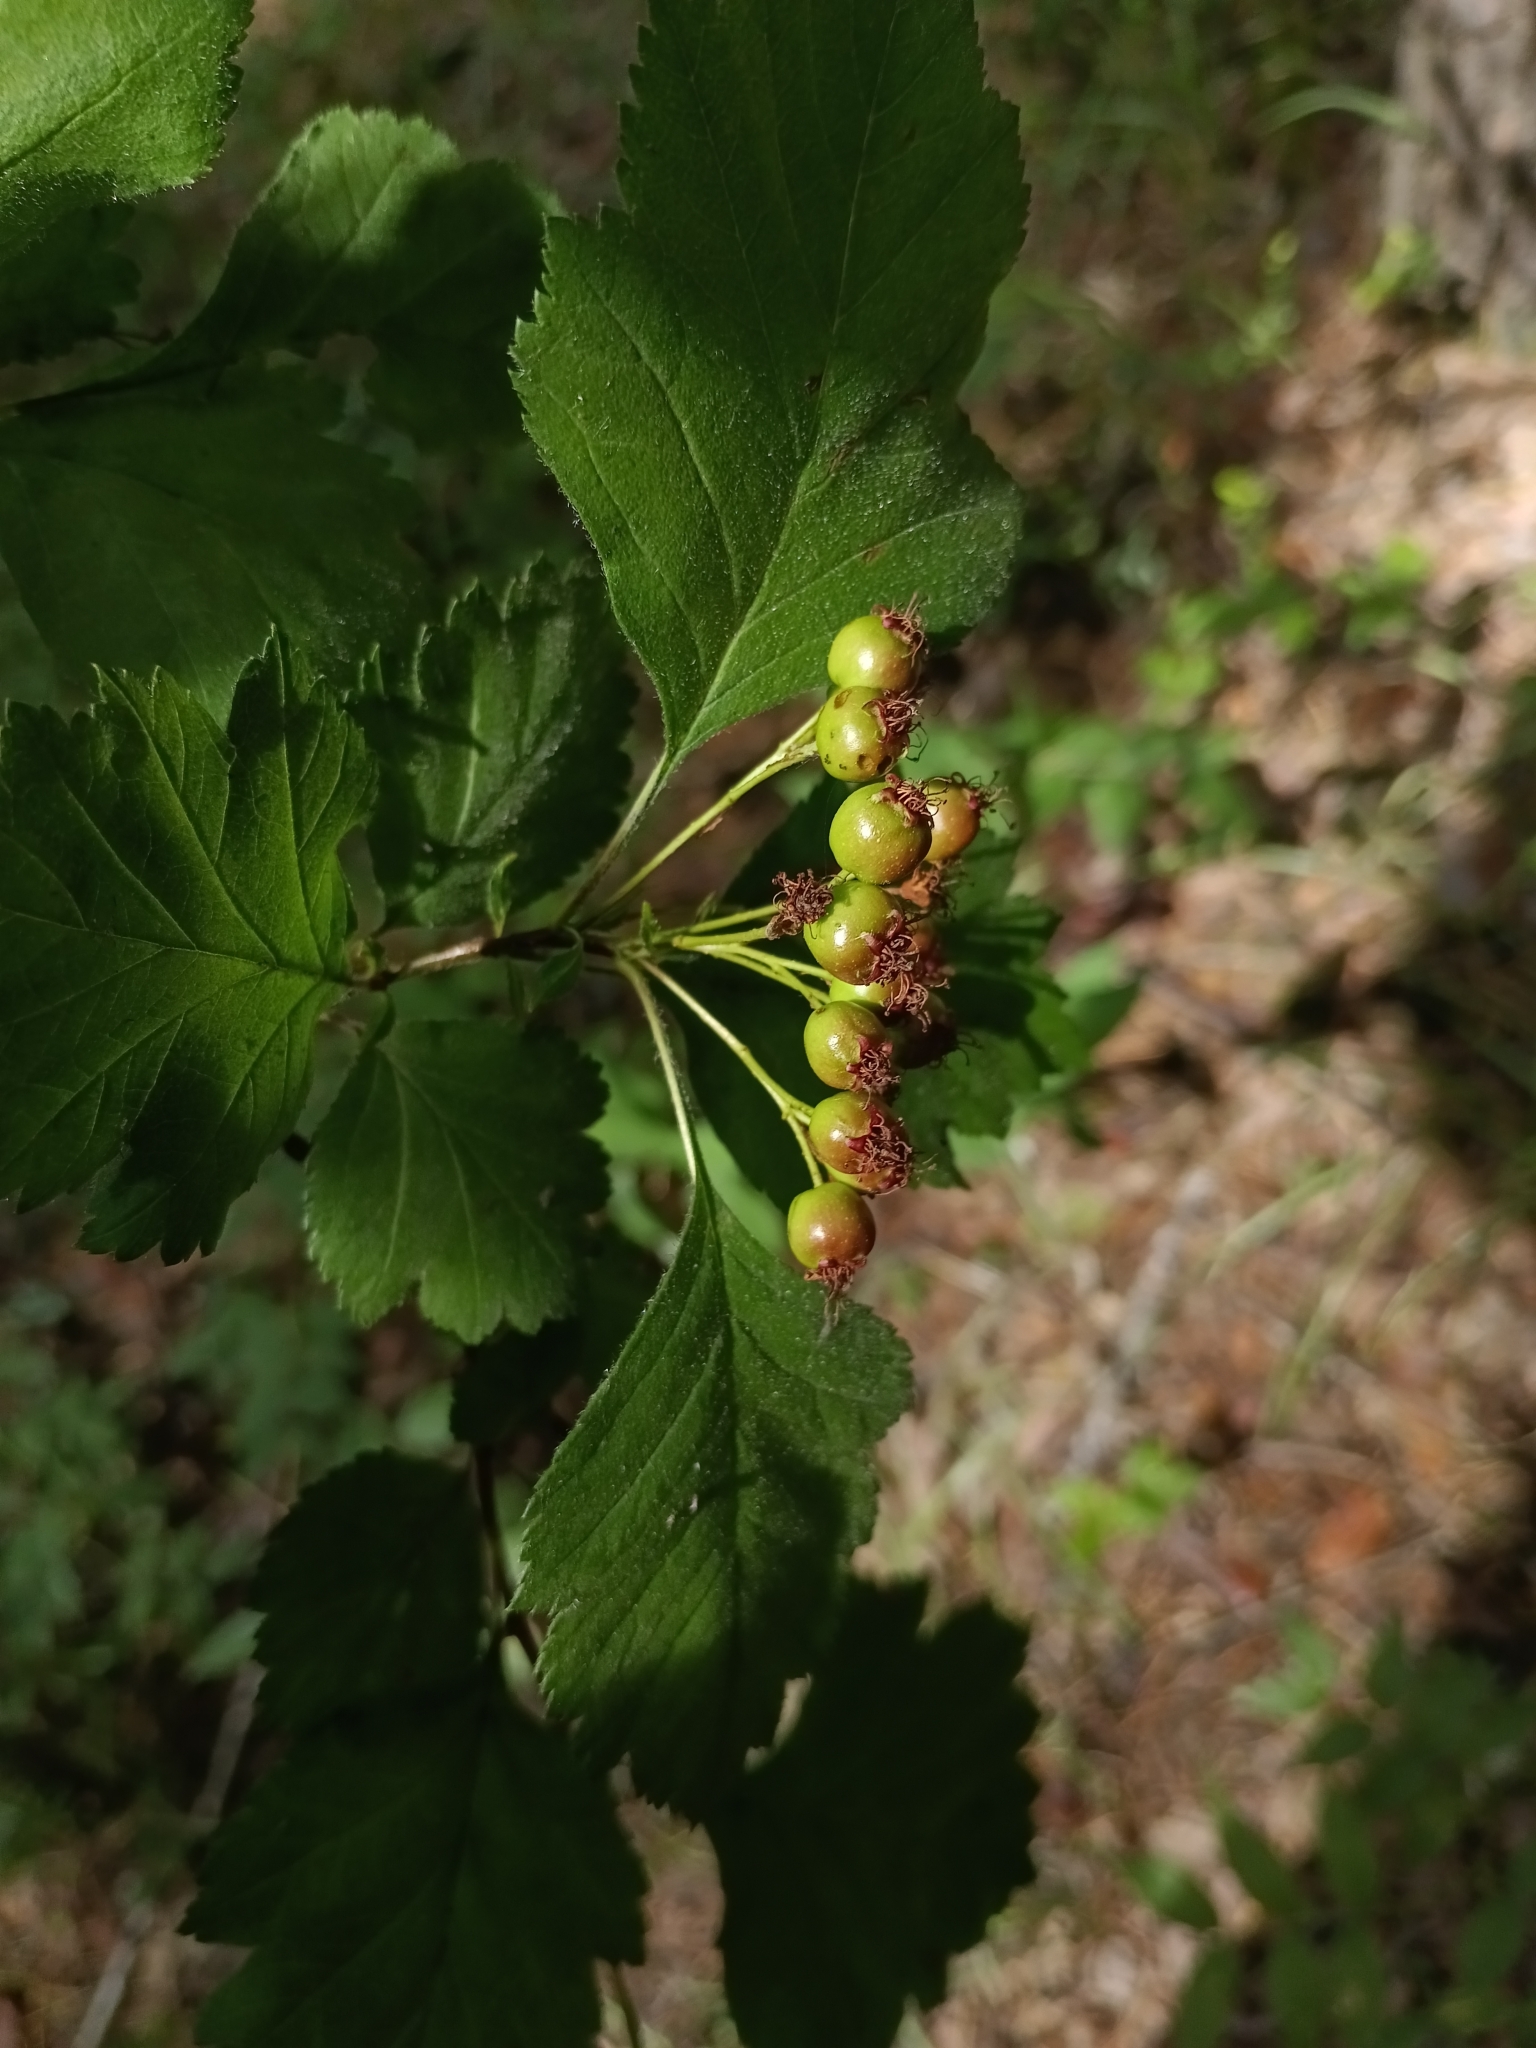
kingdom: Plantae
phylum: Tracheophyta
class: Magnoliopsida
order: Rosales
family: Rosaceae
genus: Crataegus
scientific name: Crataegus sanguinea
